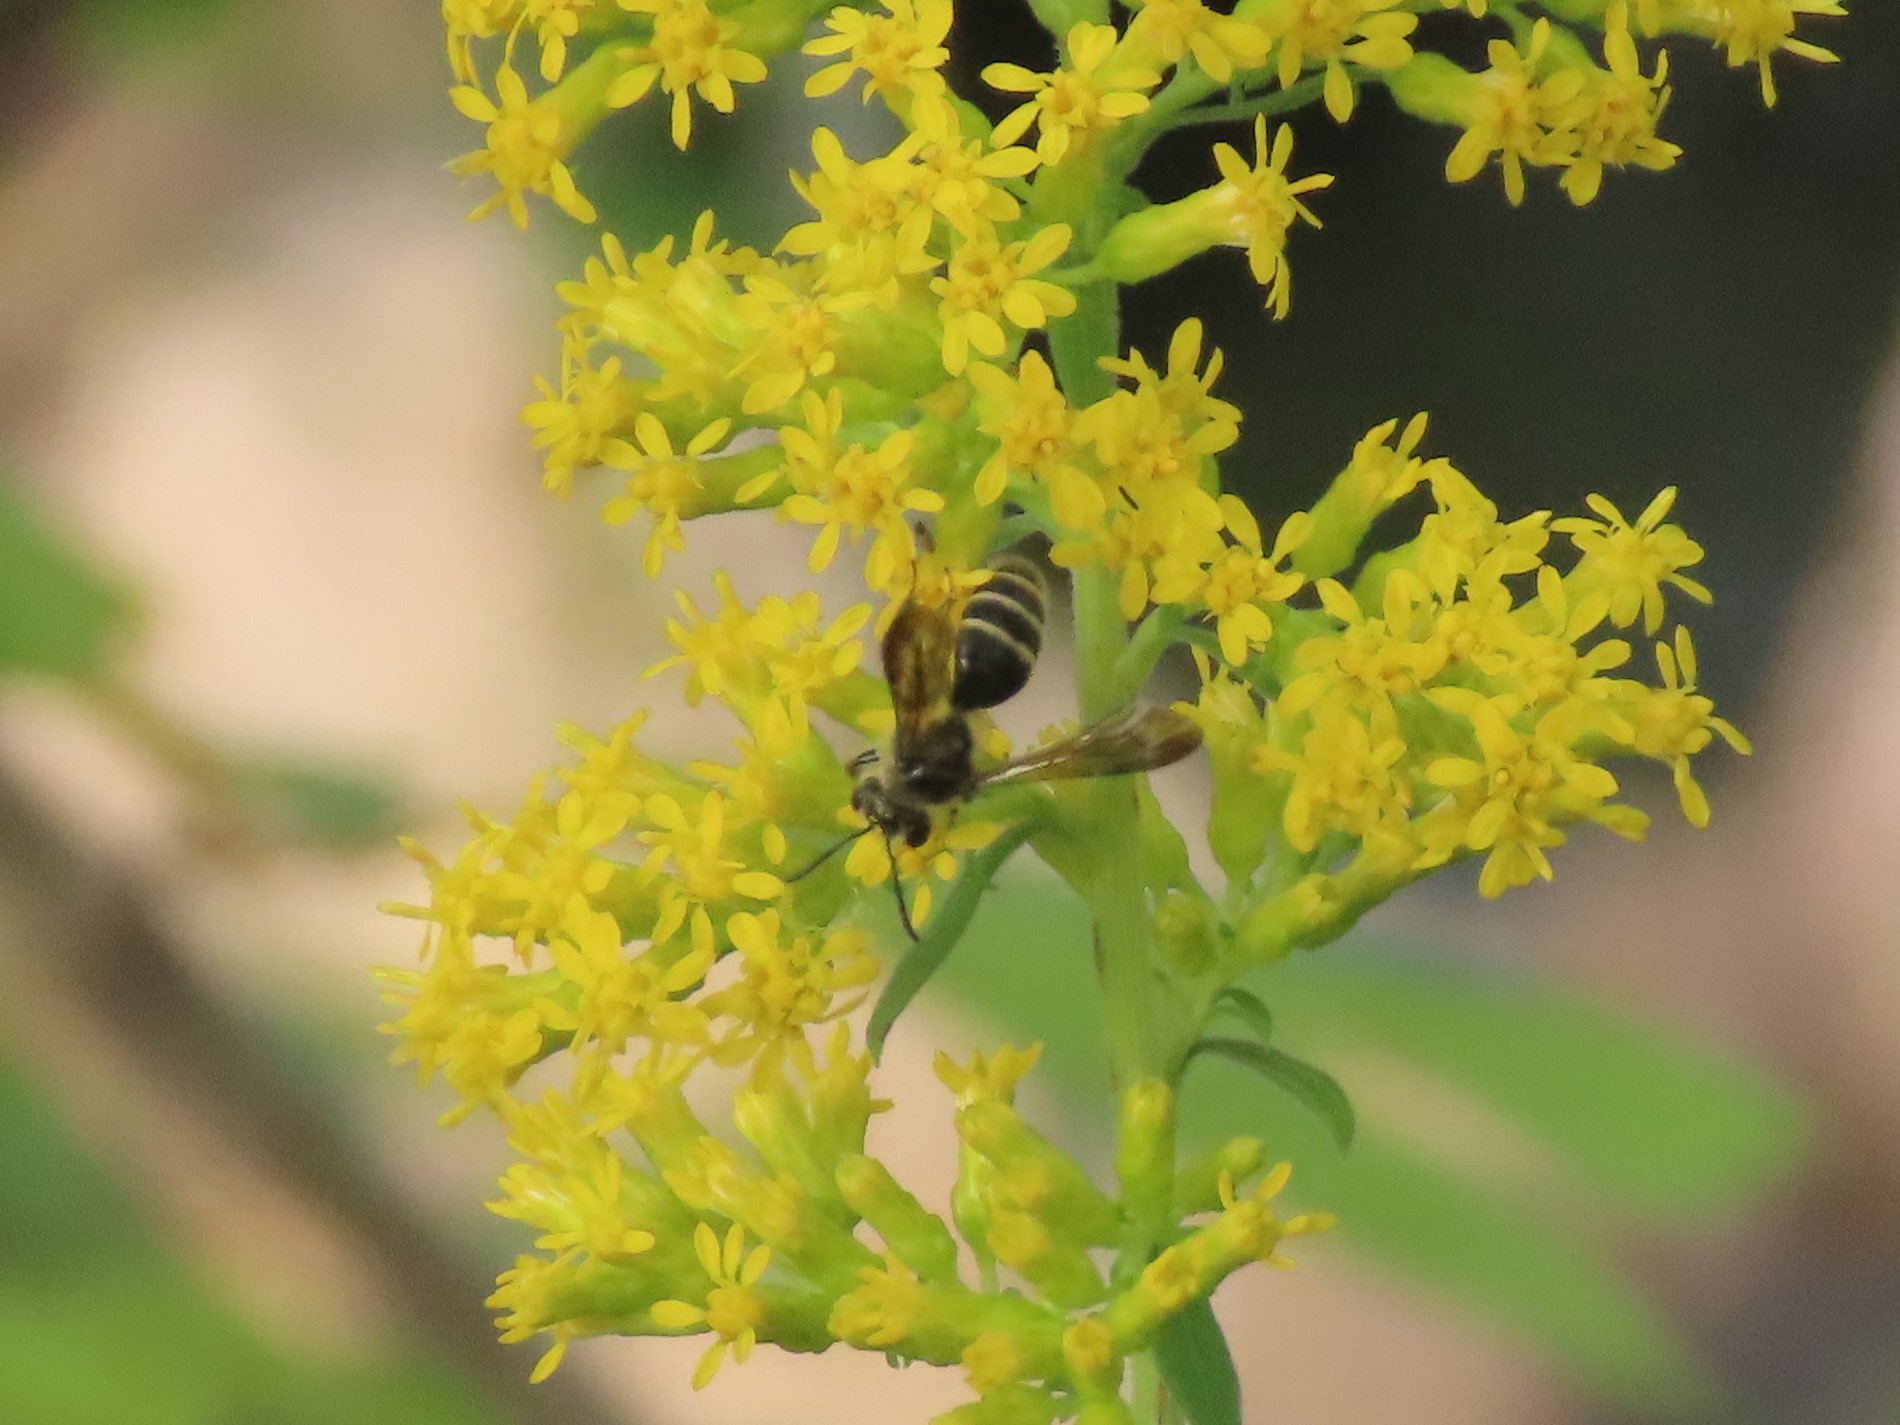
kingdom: Animalia
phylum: Arthropoda
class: Insecta
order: Hymenoptera
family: Andrenidae
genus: Andrena
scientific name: Andrena nubecula
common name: Cloudy-winged mining bee
